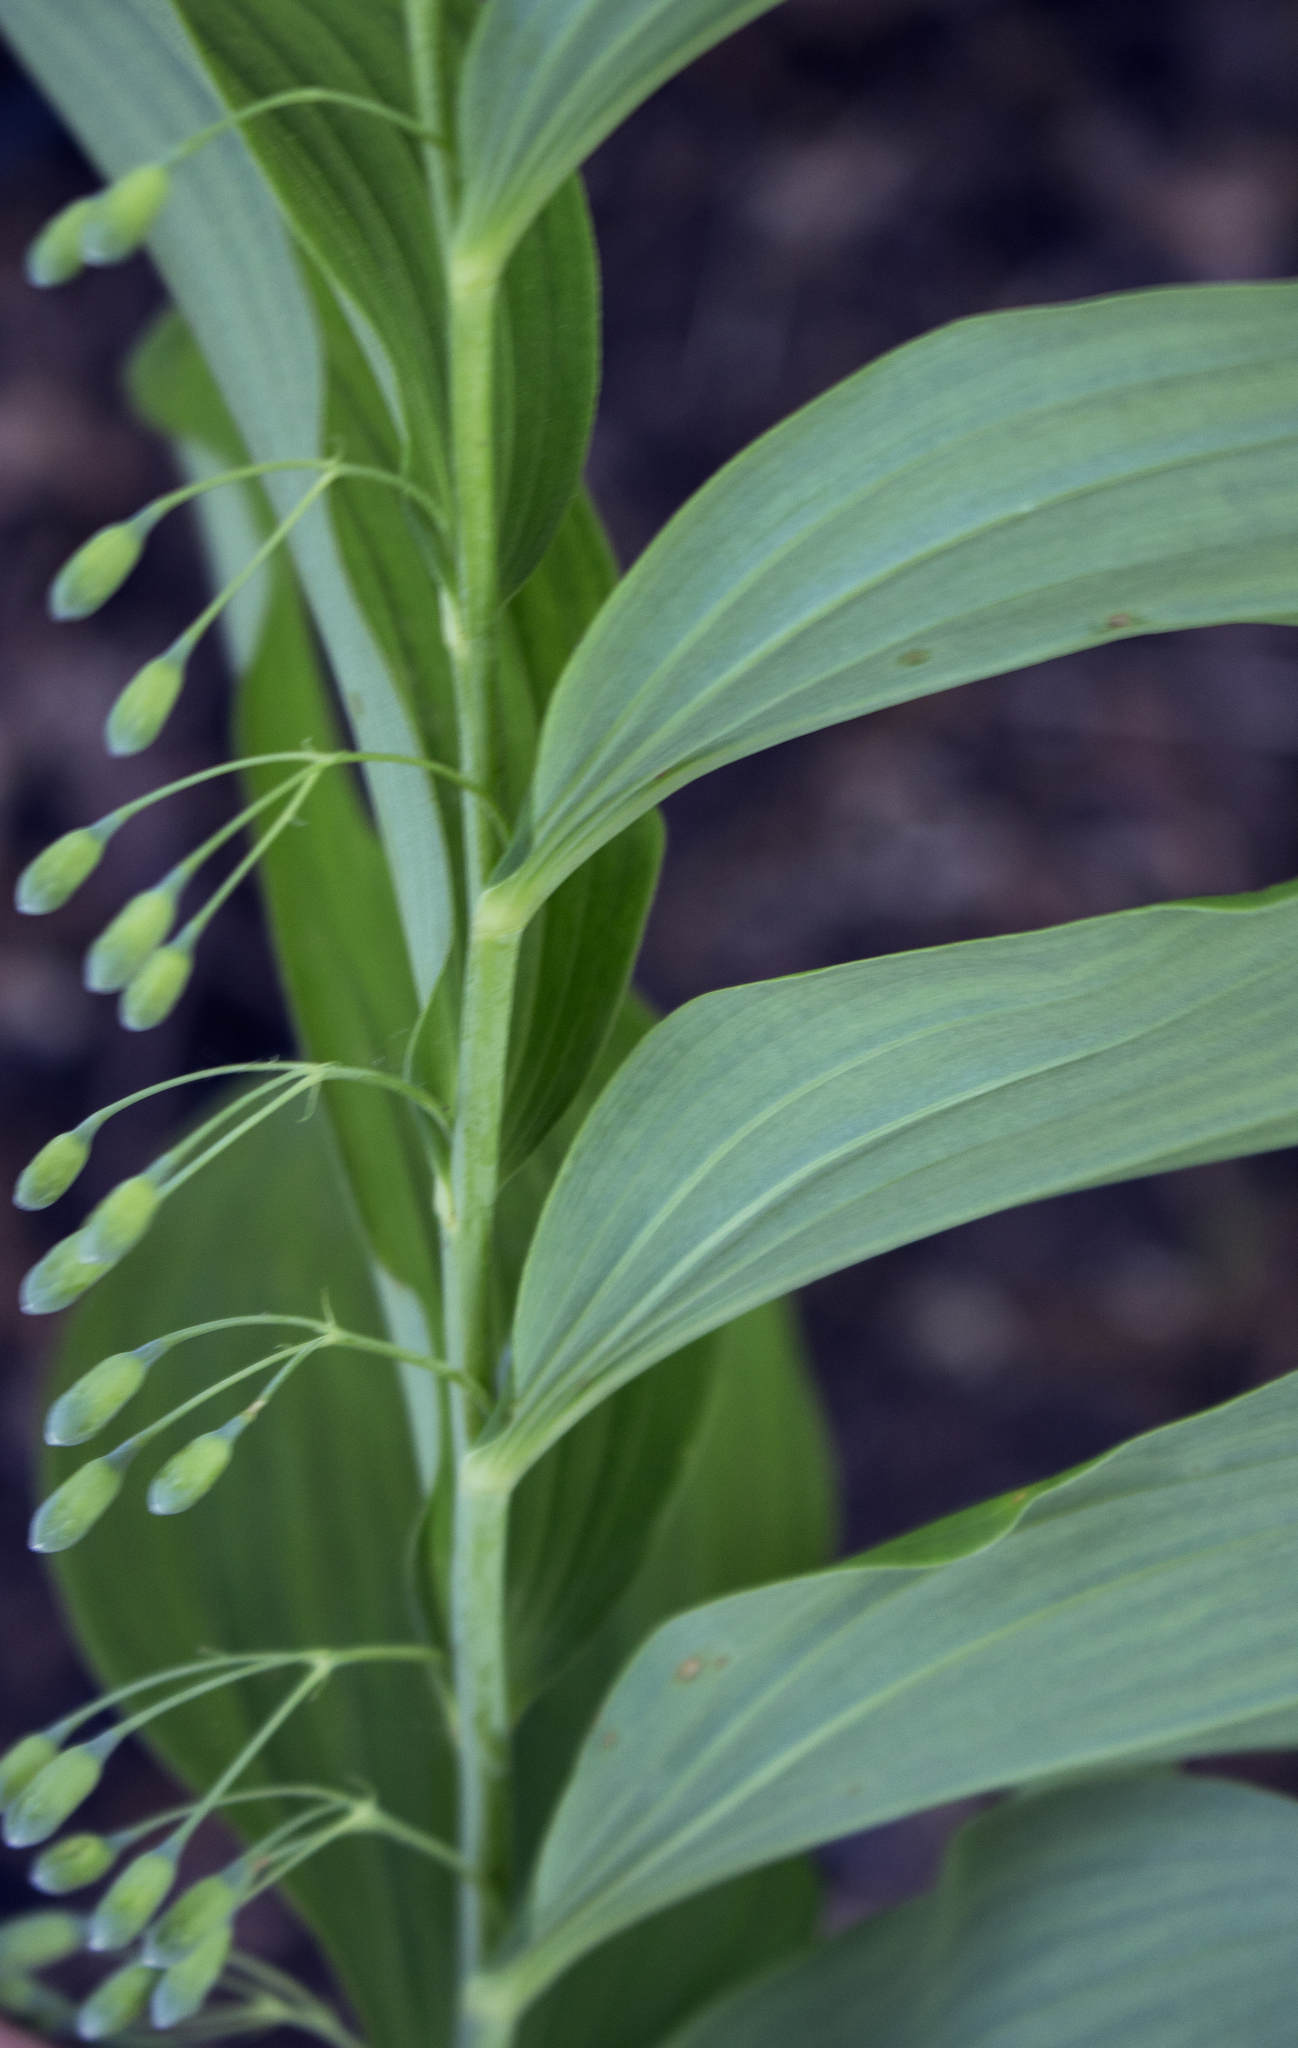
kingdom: Plantae
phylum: Tracheophyta
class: Liliopsida
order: Asparagales
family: Asparagaceae
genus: Polygonatum
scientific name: Polygonatum biflorum
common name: American solomon's-seal
